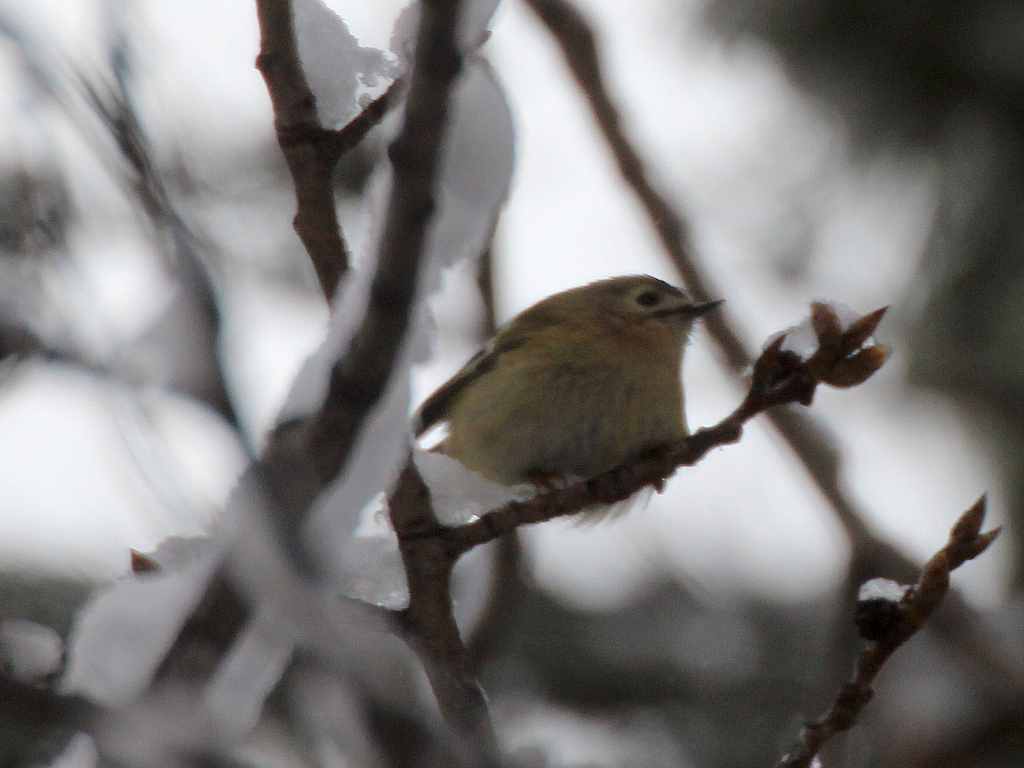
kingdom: Animalia
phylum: Chordata
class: Aves
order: Passeriformes
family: Regulidae
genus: Regulus
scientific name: Regulus regulus
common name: Goldcrest
